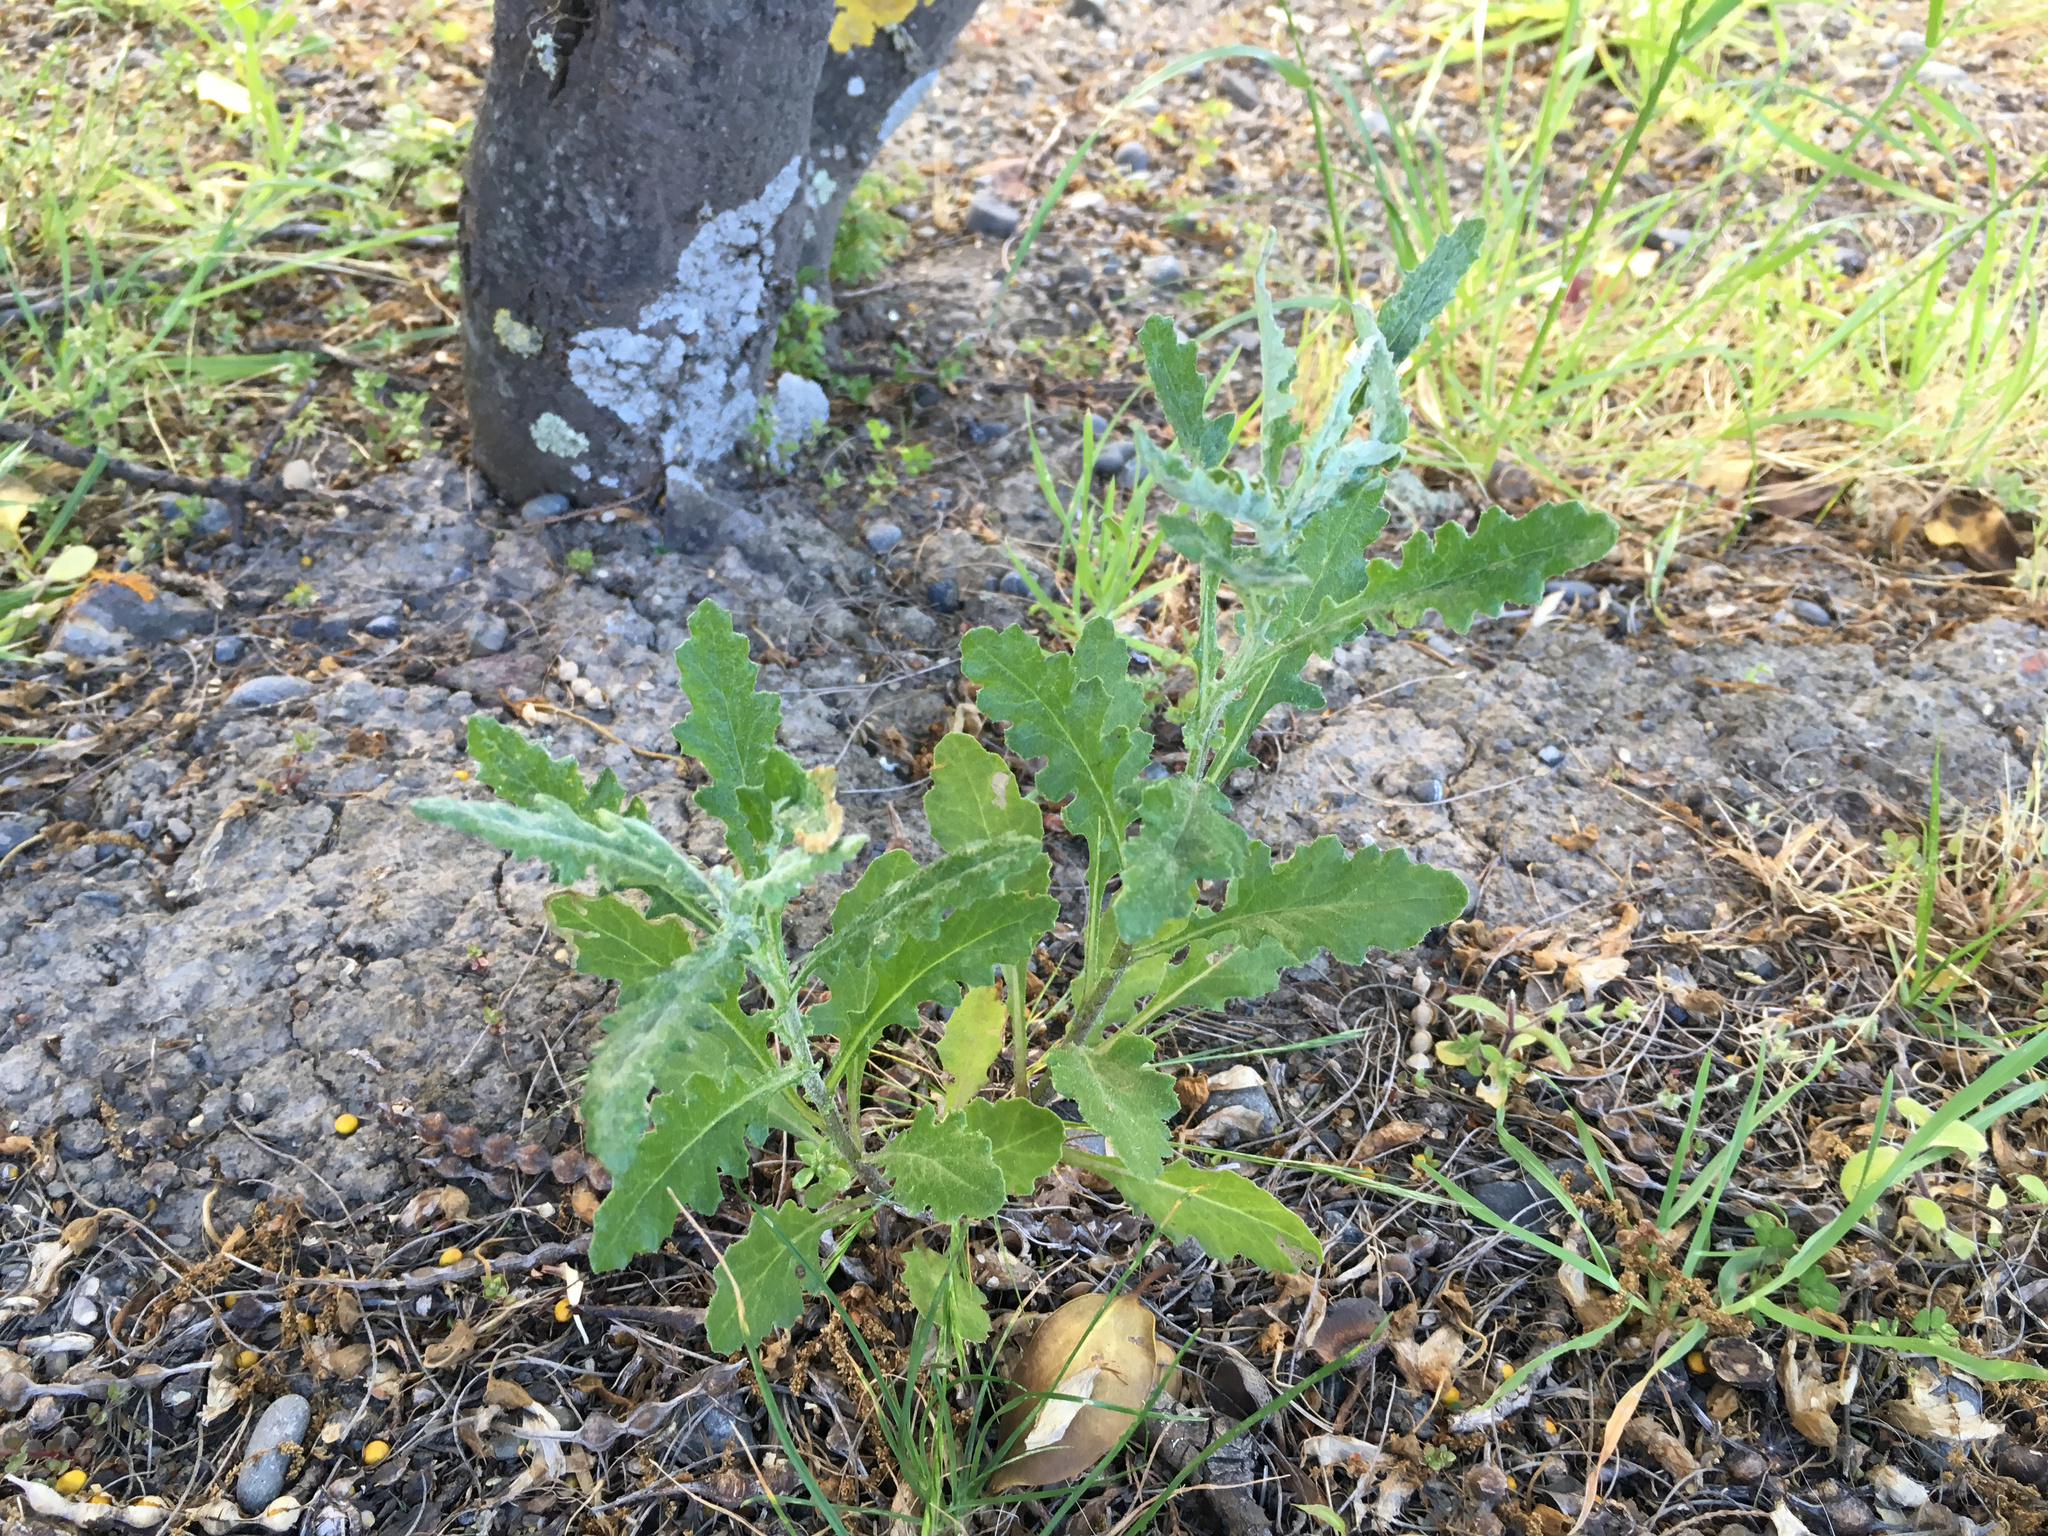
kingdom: Plantae
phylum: Tracheophyta
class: Magnoliopsida
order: Asterales
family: Asteraceae
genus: Senecio
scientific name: Senecio glomeratus
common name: Cutleaf burnweed
